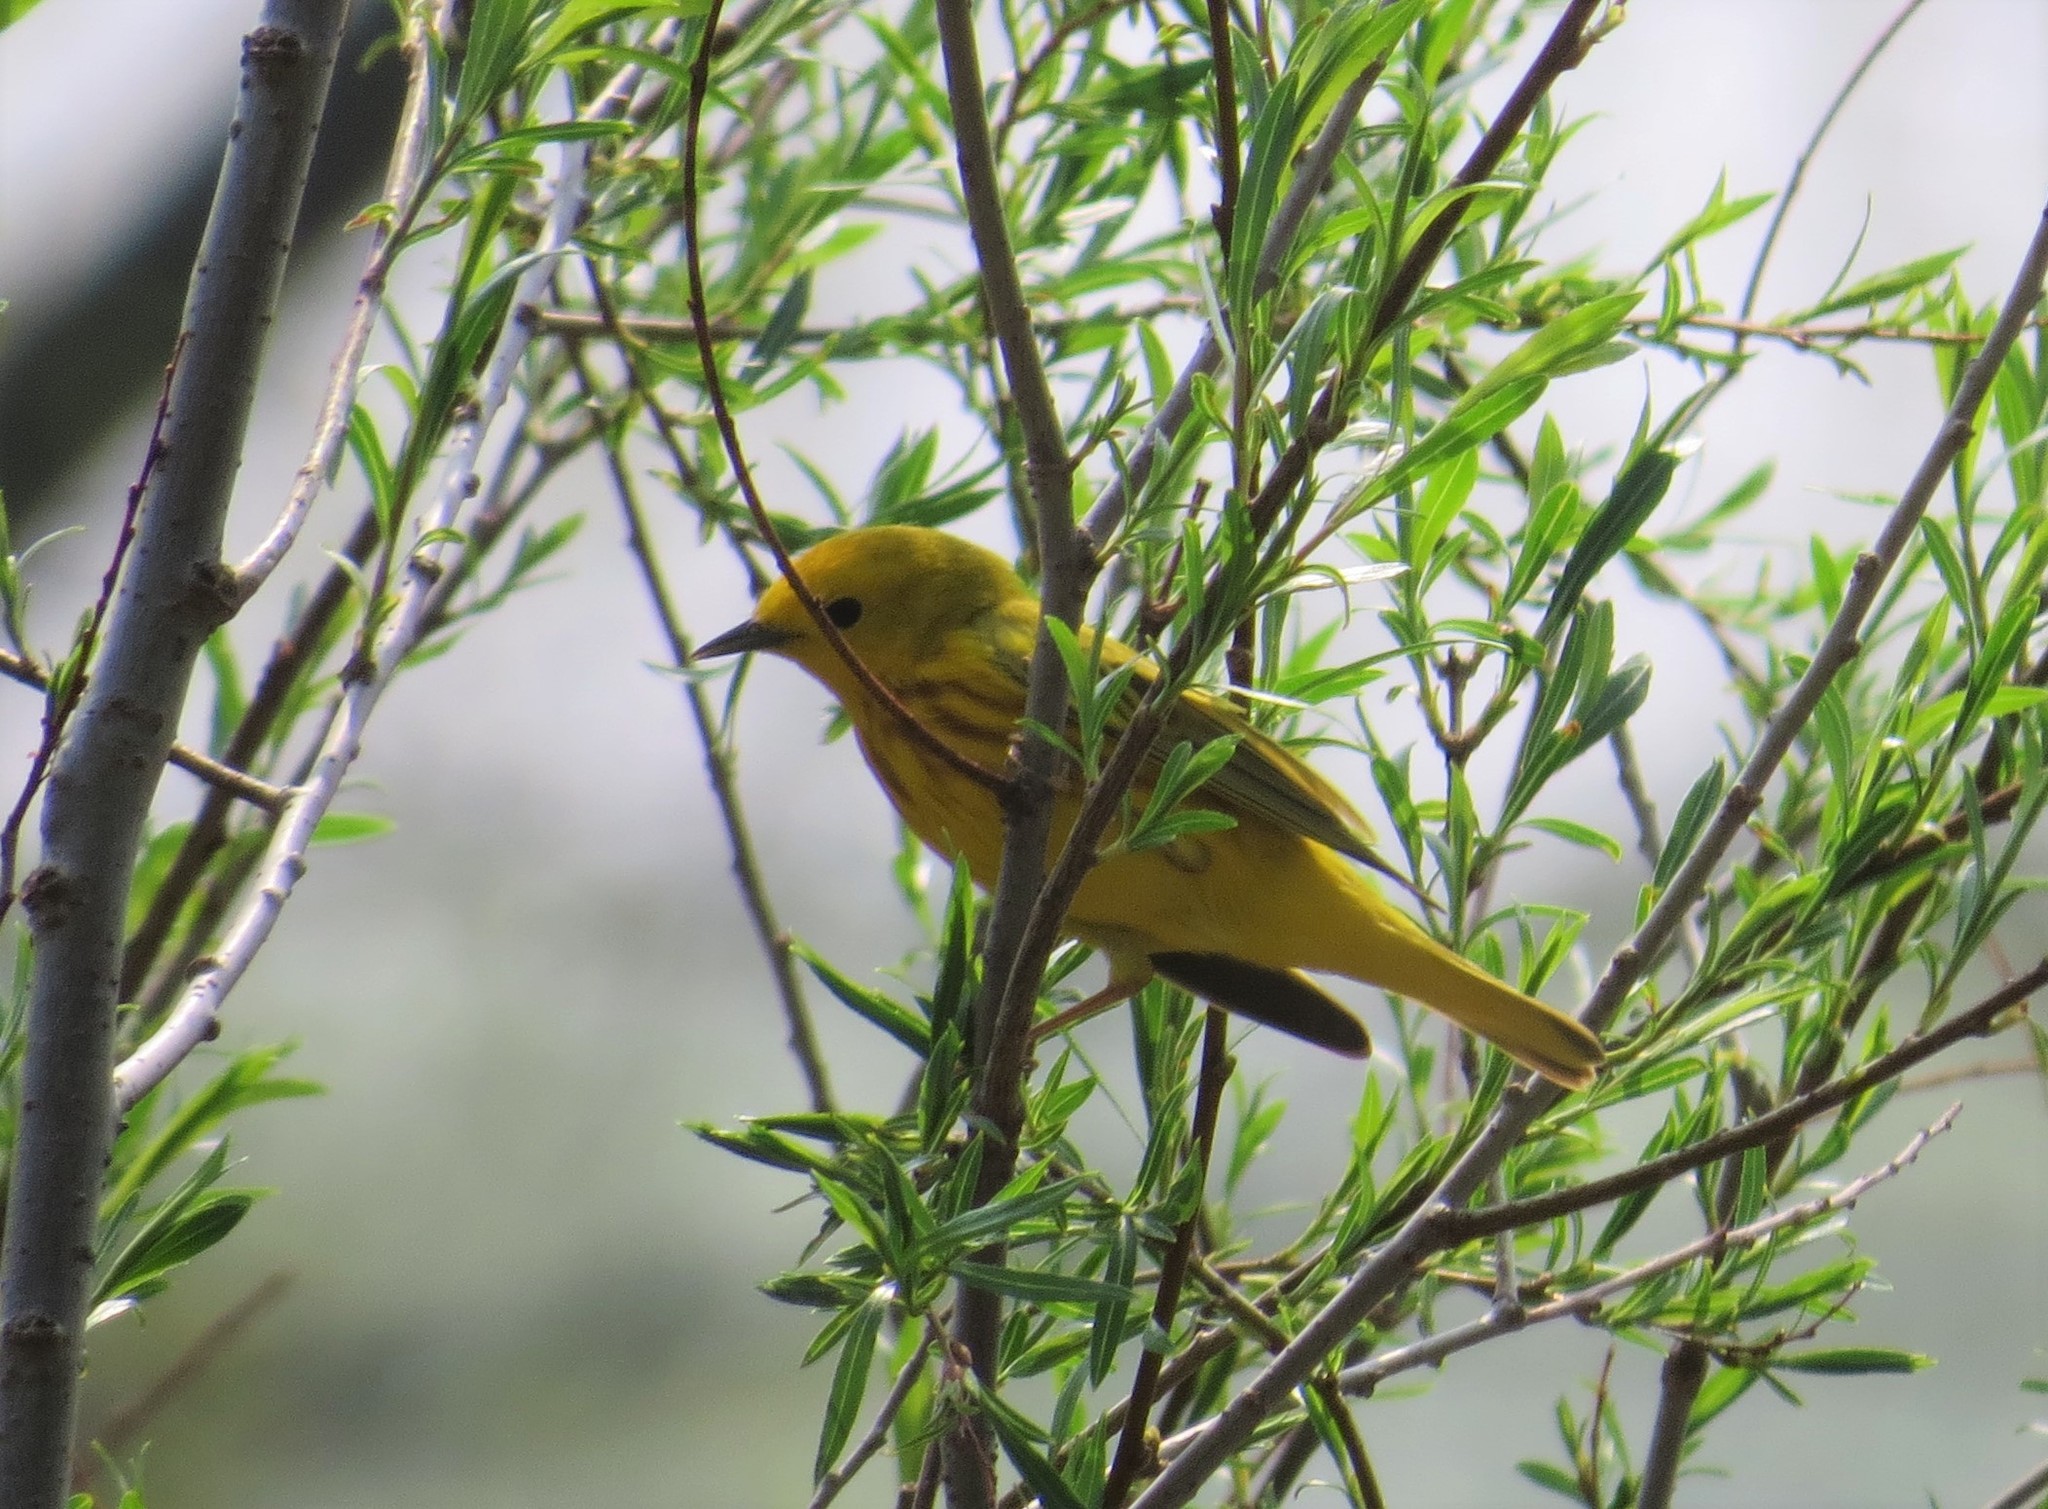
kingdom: Animalia
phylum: Chordata
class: Aves
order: Passeriformes
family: Parulidae
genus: Setophaga
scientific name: Setophaga petechia
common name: Yellow warbler
